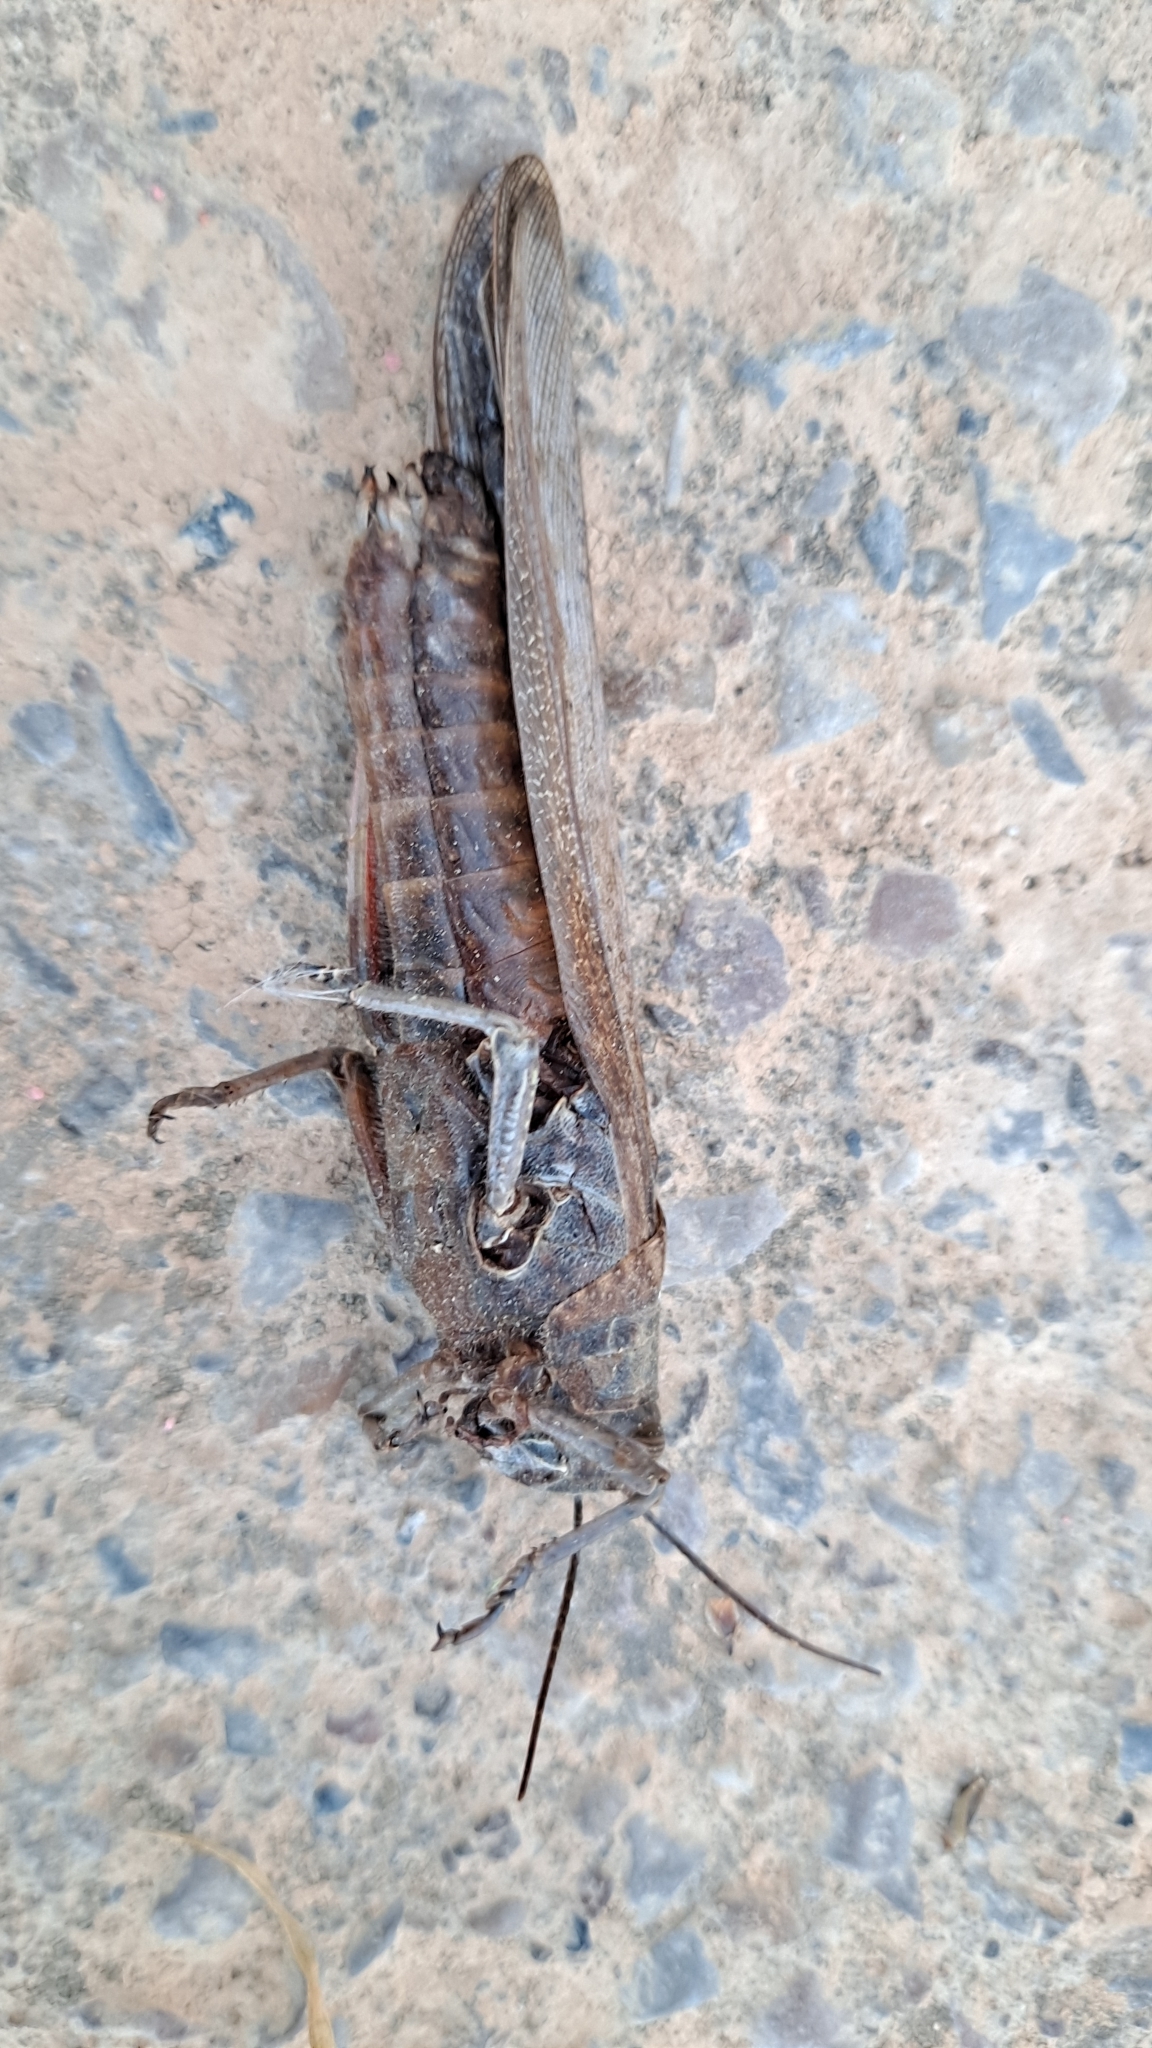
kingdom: Animalia
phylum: Arthropoda
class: Insecta
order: Orthoptera
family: Acrididae
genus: Anacridium
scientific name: Anacridium aegyptium
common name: Egyptian grasshopper
